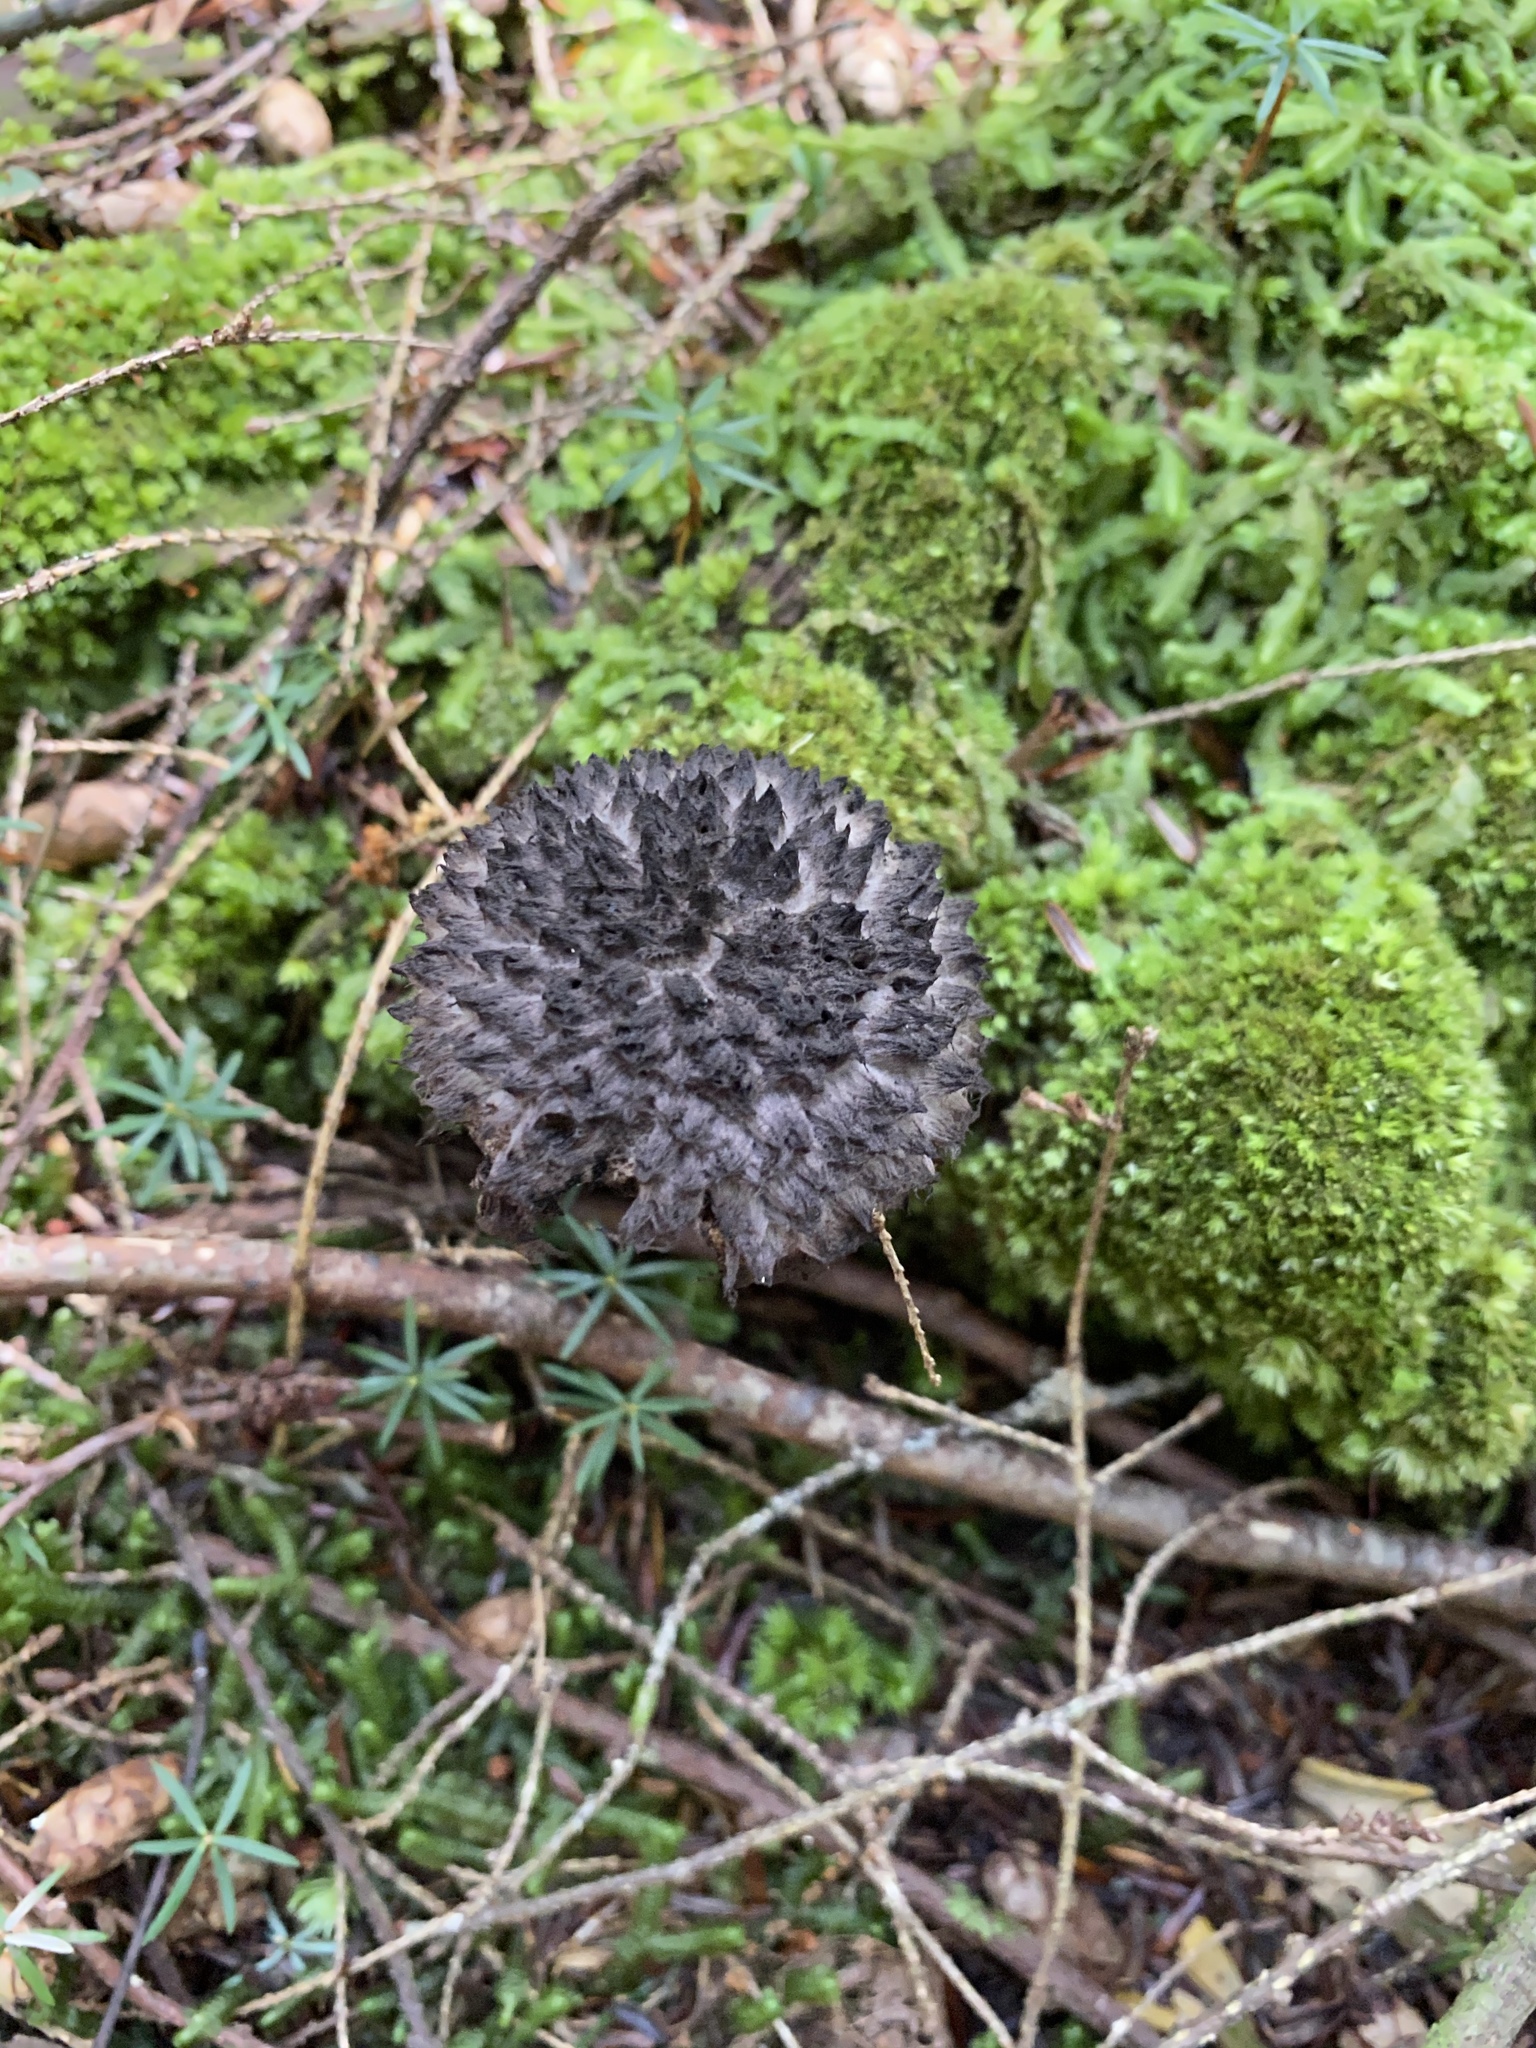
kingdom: Fungi
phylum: Basidiomycota
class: Agaricomycetes
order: Boletales
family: Boletaceae
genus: Strobilomyces
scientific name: Strobilomyces strobilaceus
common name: Old man of the woods
